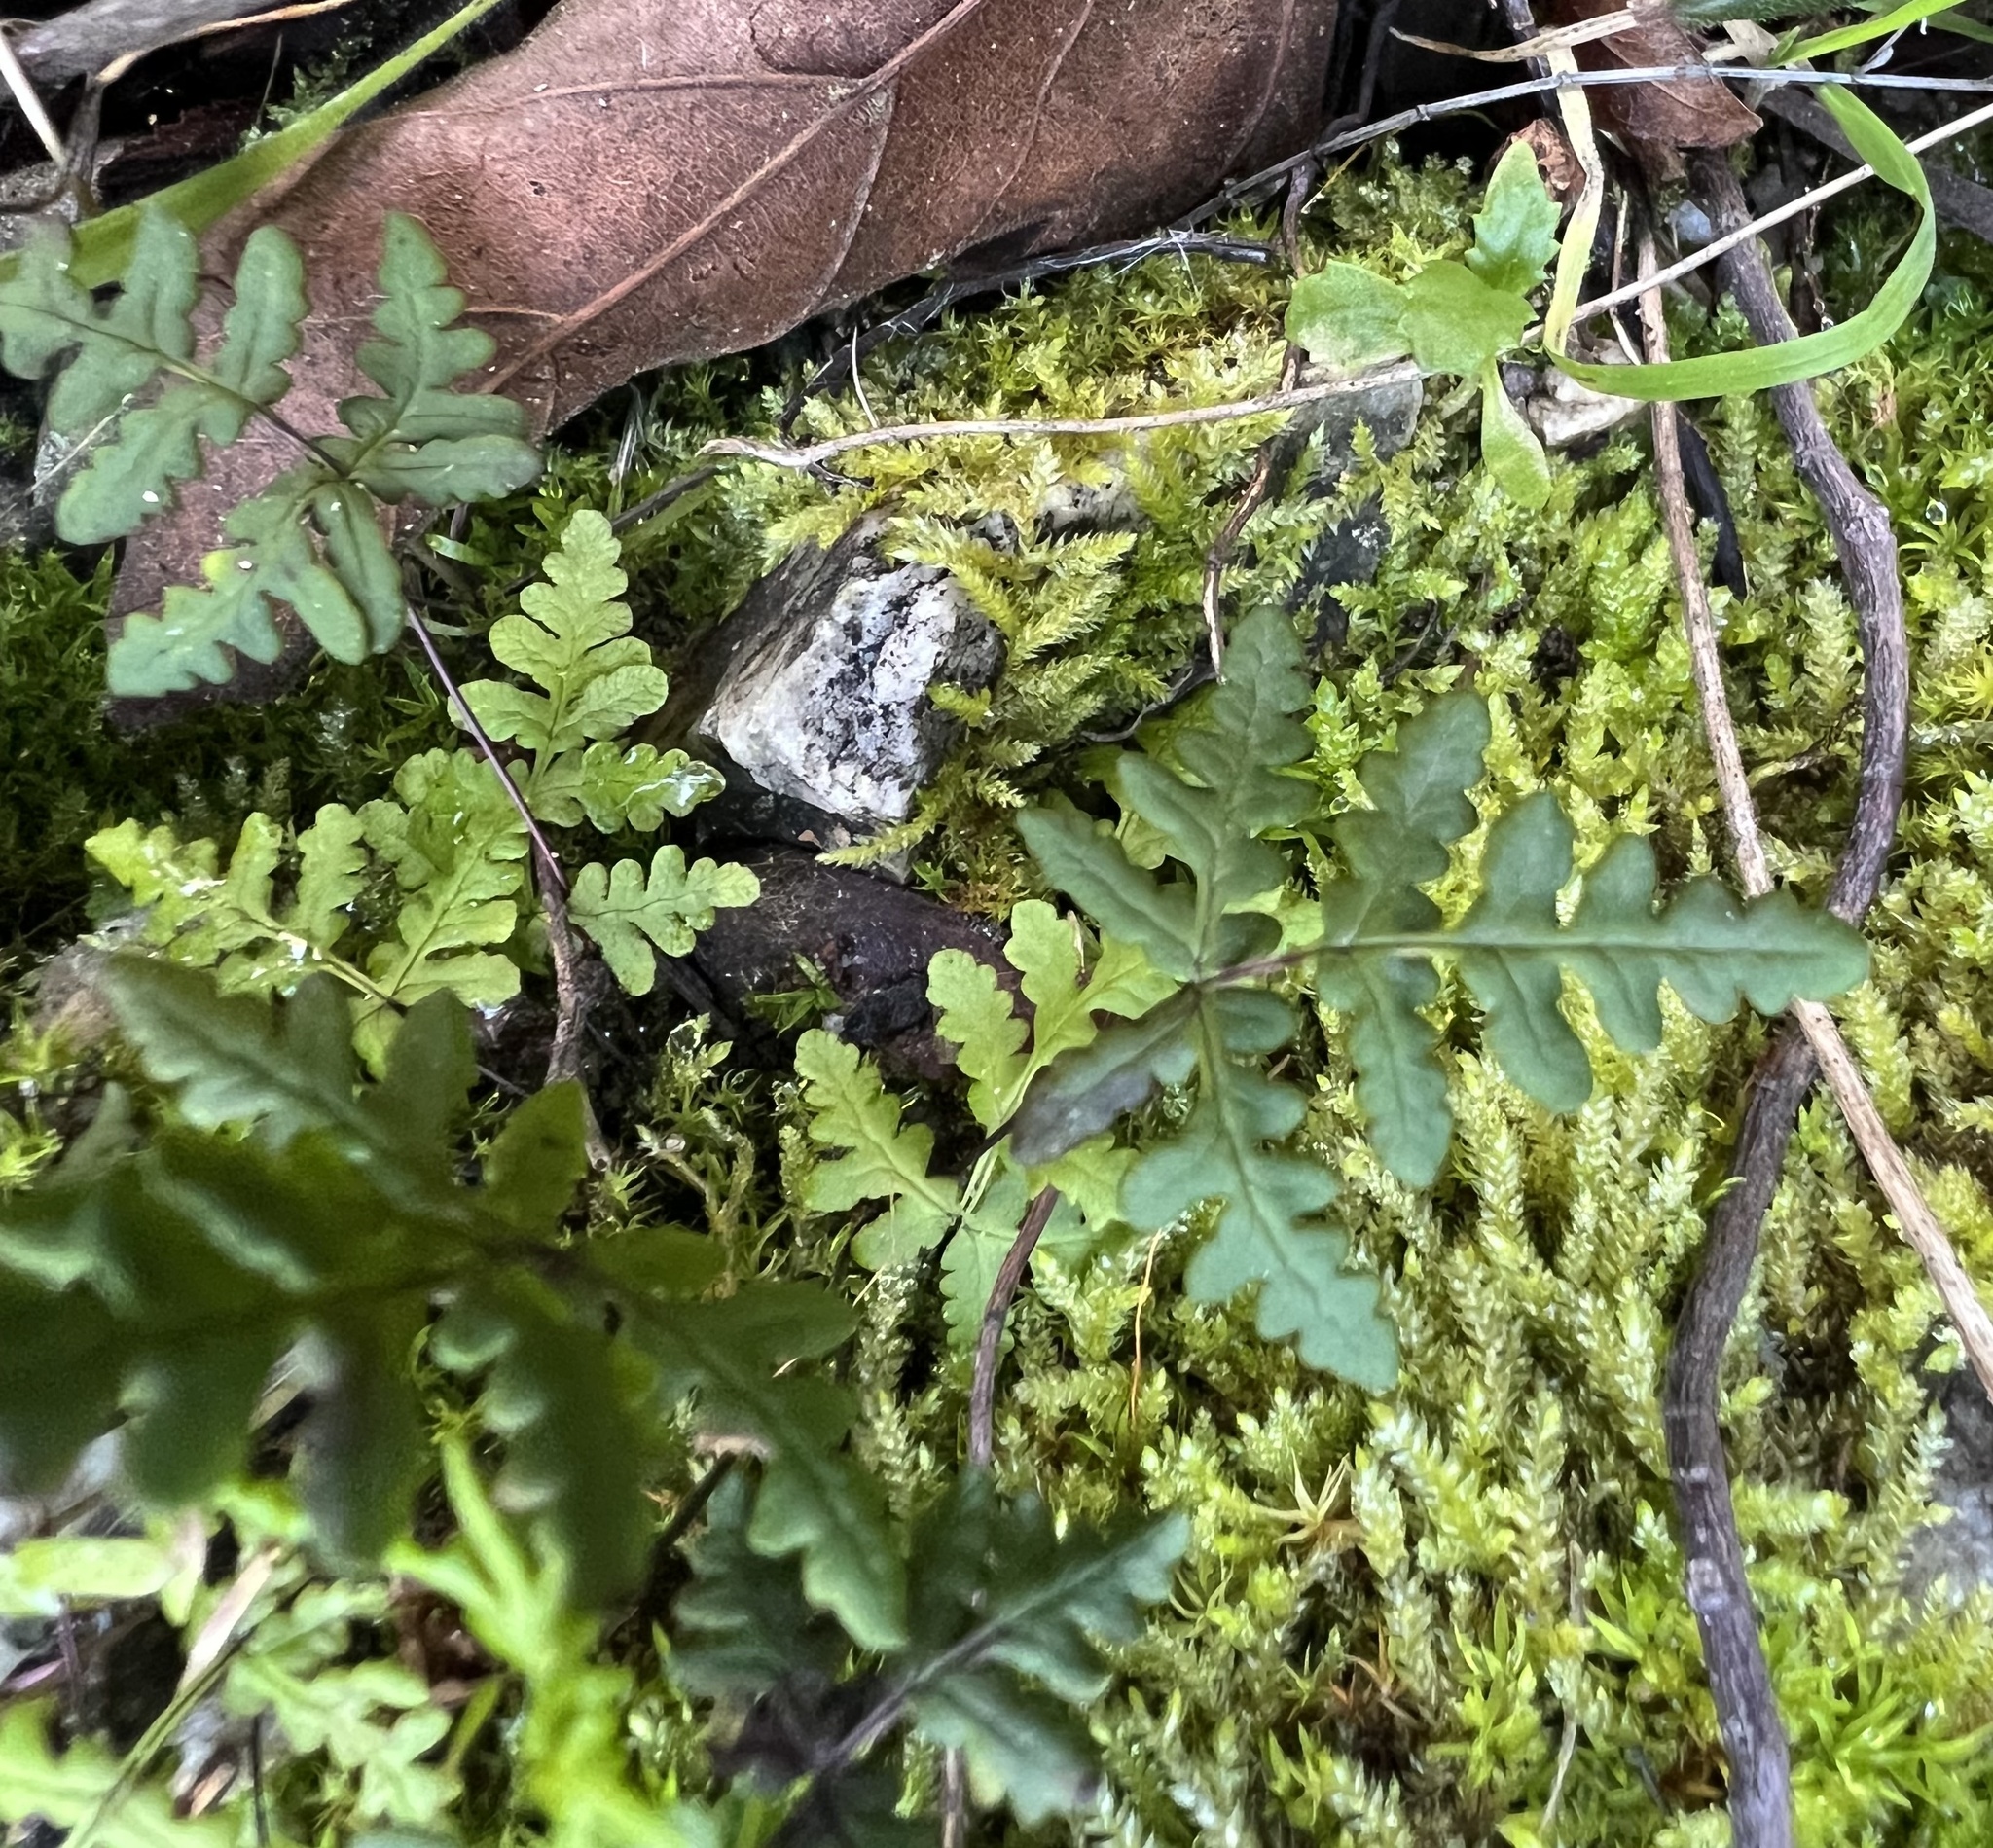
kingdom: Plantae
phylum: Tracheophyta
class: Polypodiopsida
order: Polypodiales
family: Pteridaceae
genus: Pentagramma
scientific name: Pentagramma triangularis
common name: Gold fern
